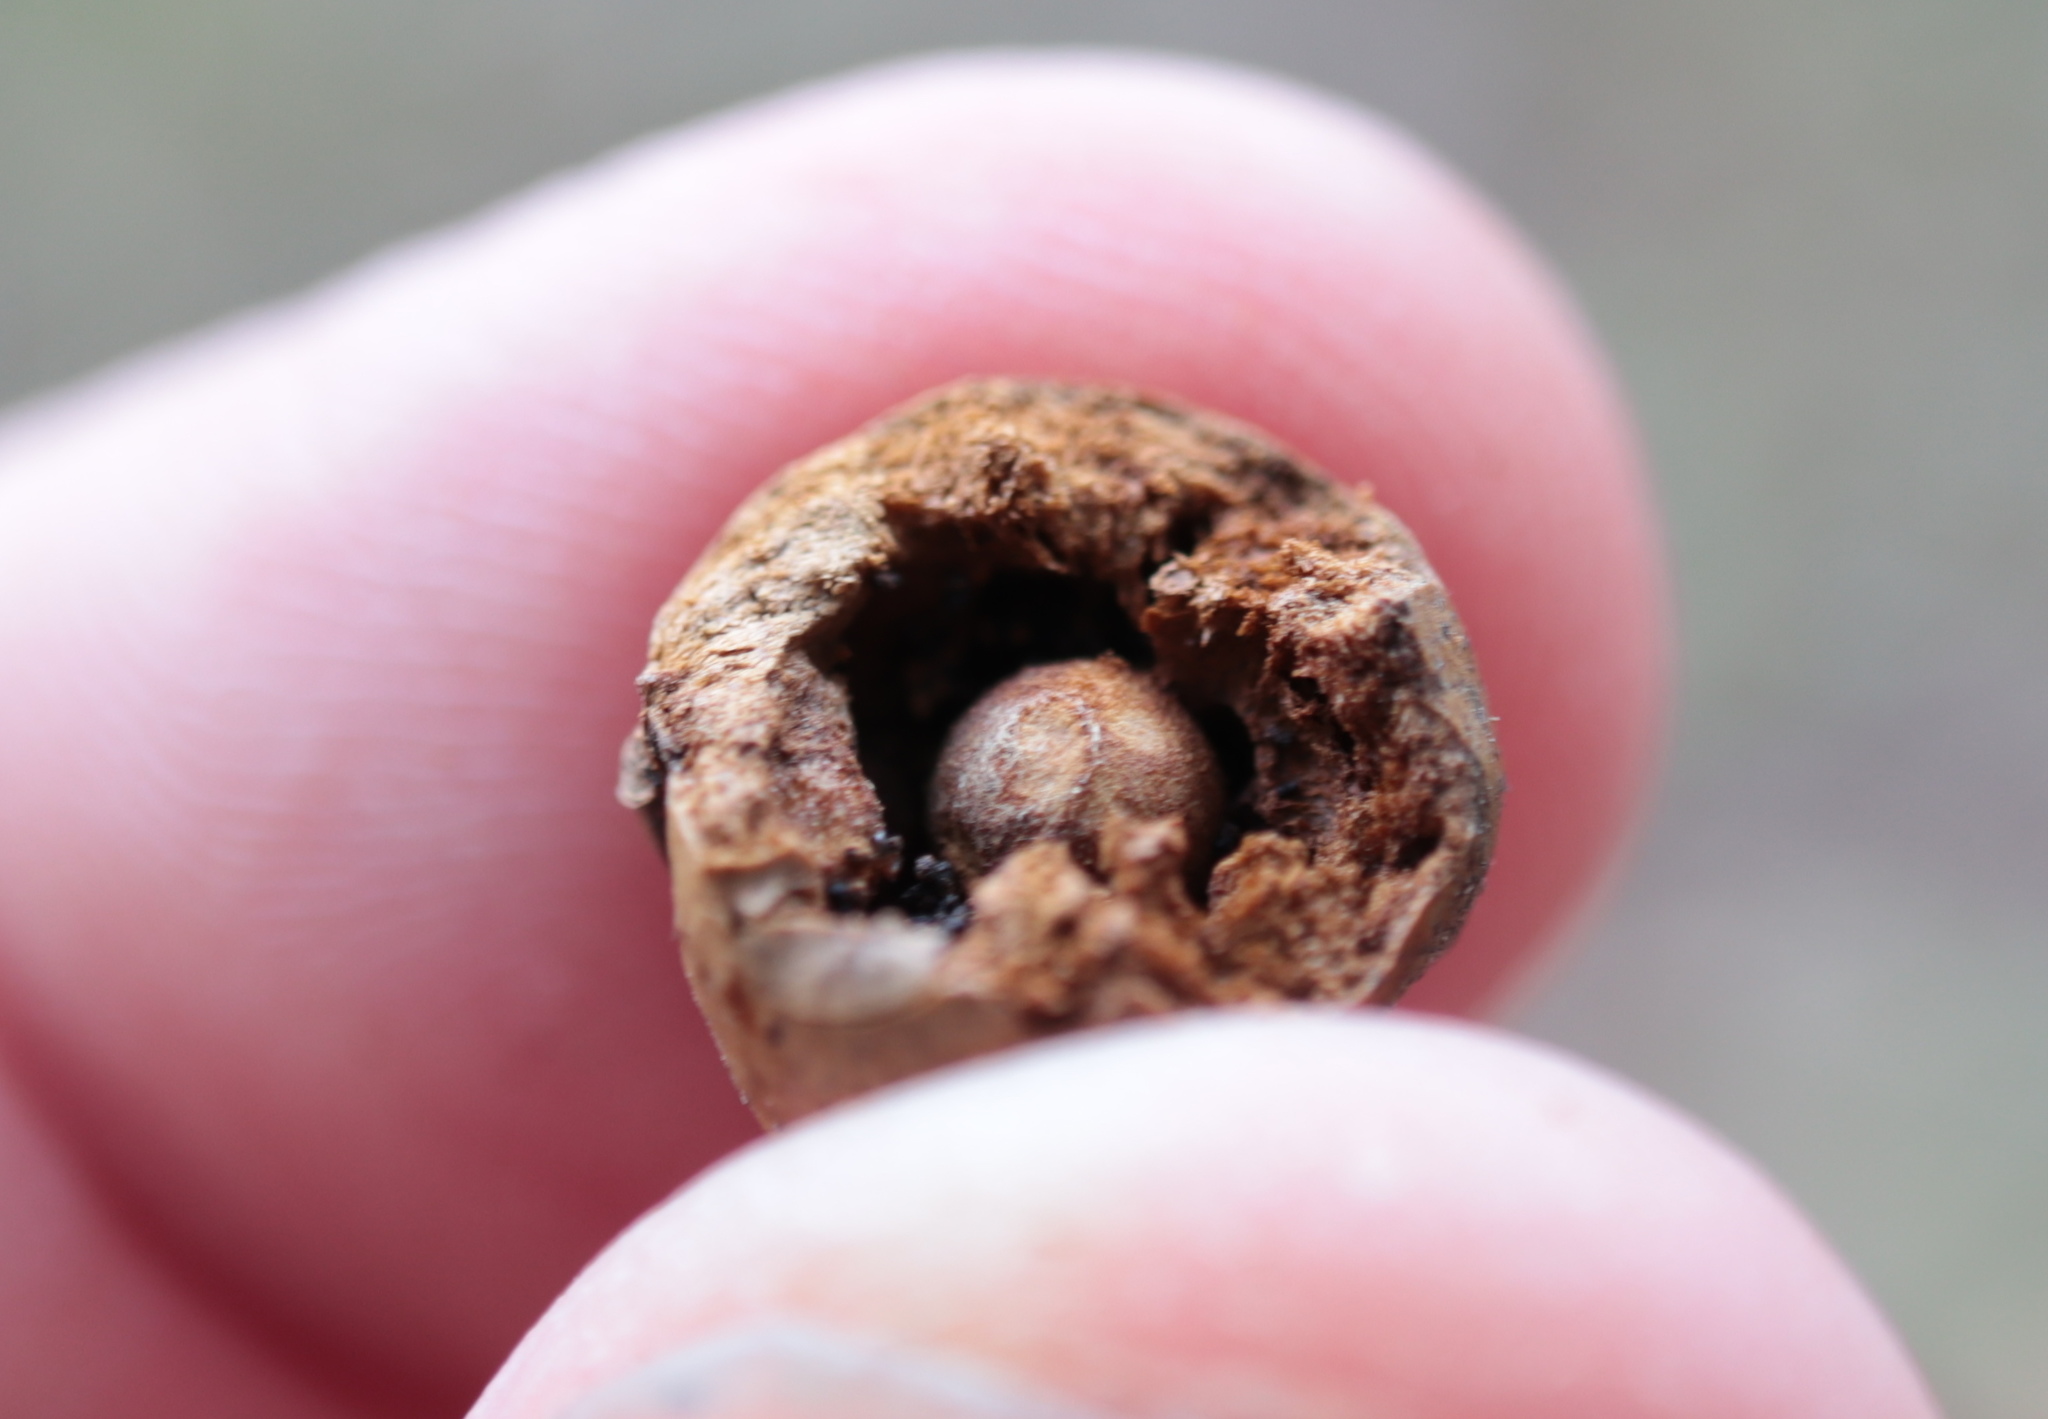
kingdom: Animalia
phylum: Arthropoda
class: Insecta
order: Hymenoptera
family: Cynipidae
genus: Disholcaspis
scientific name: Disholcaspis quercusglobulus
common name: Round bullet gall wasp
